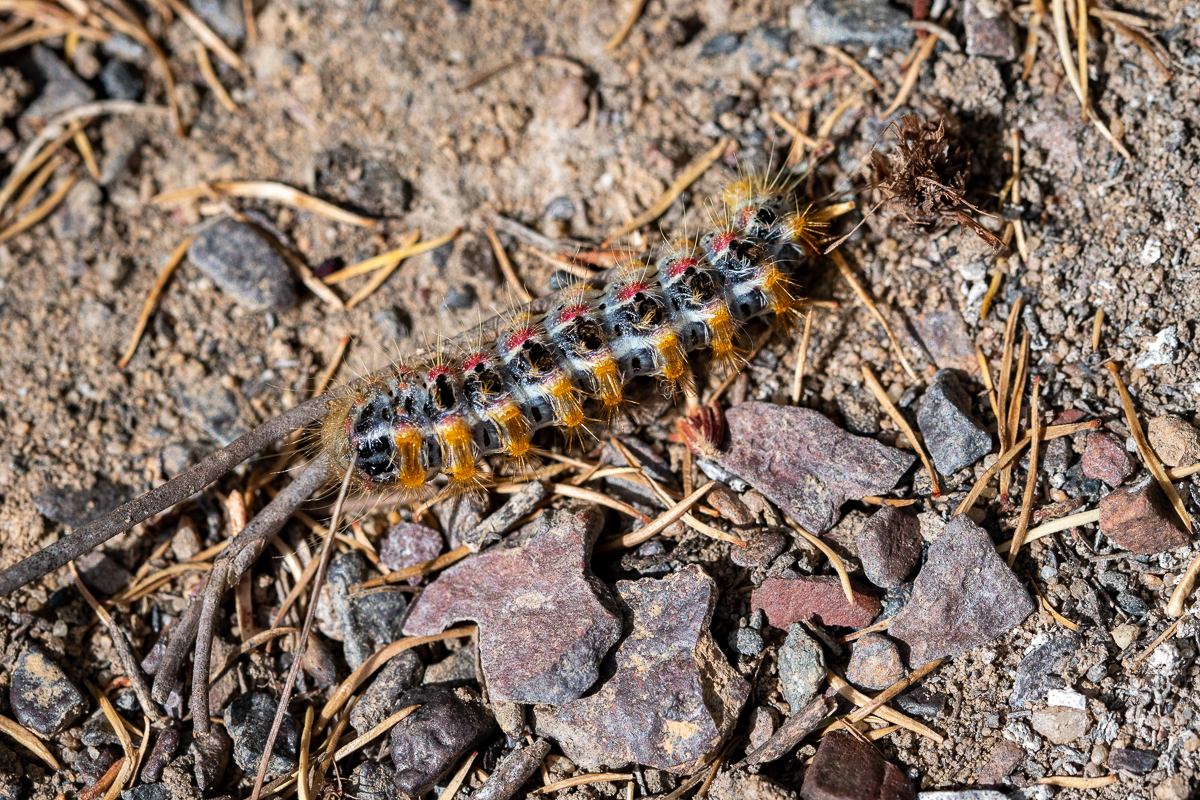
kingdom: Animalia
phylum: Arthropoda
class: Insecta
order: Lepidoptera
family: Somabrachyidae
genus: Psycharium
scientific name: Psycharium pellucens
